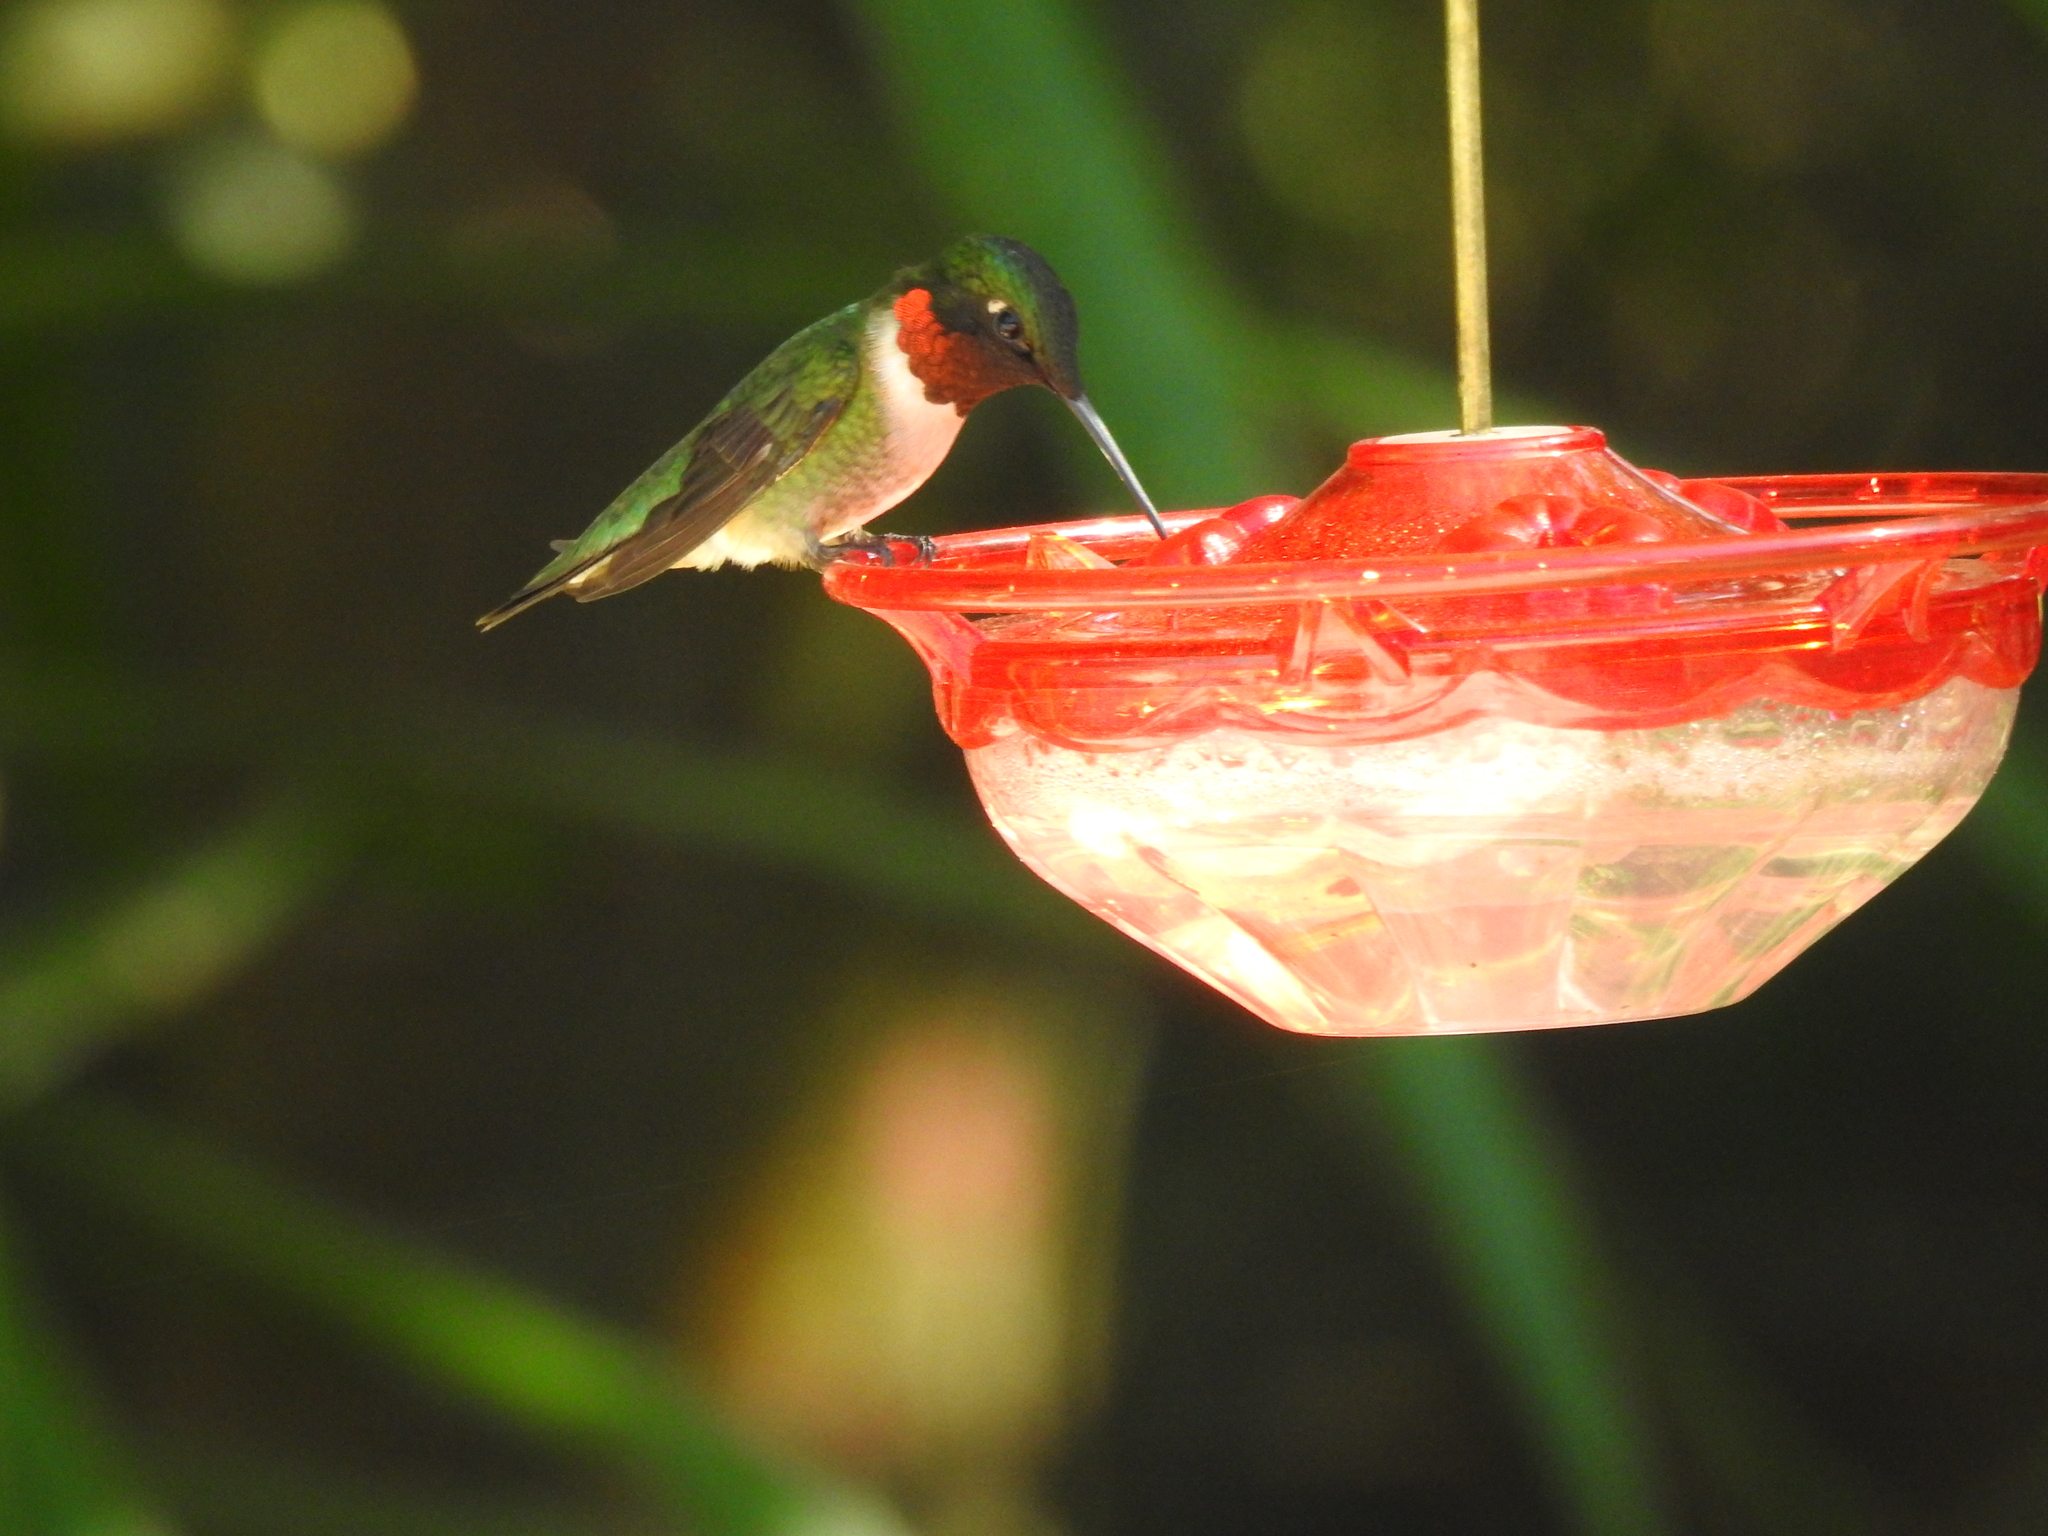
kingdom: Animalia
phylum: Chordata
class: Aves
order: Apodiformes
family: Trochilidae
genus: Archilochus
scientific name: Archilochus colubris
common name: Ruby-throated hummingbird
